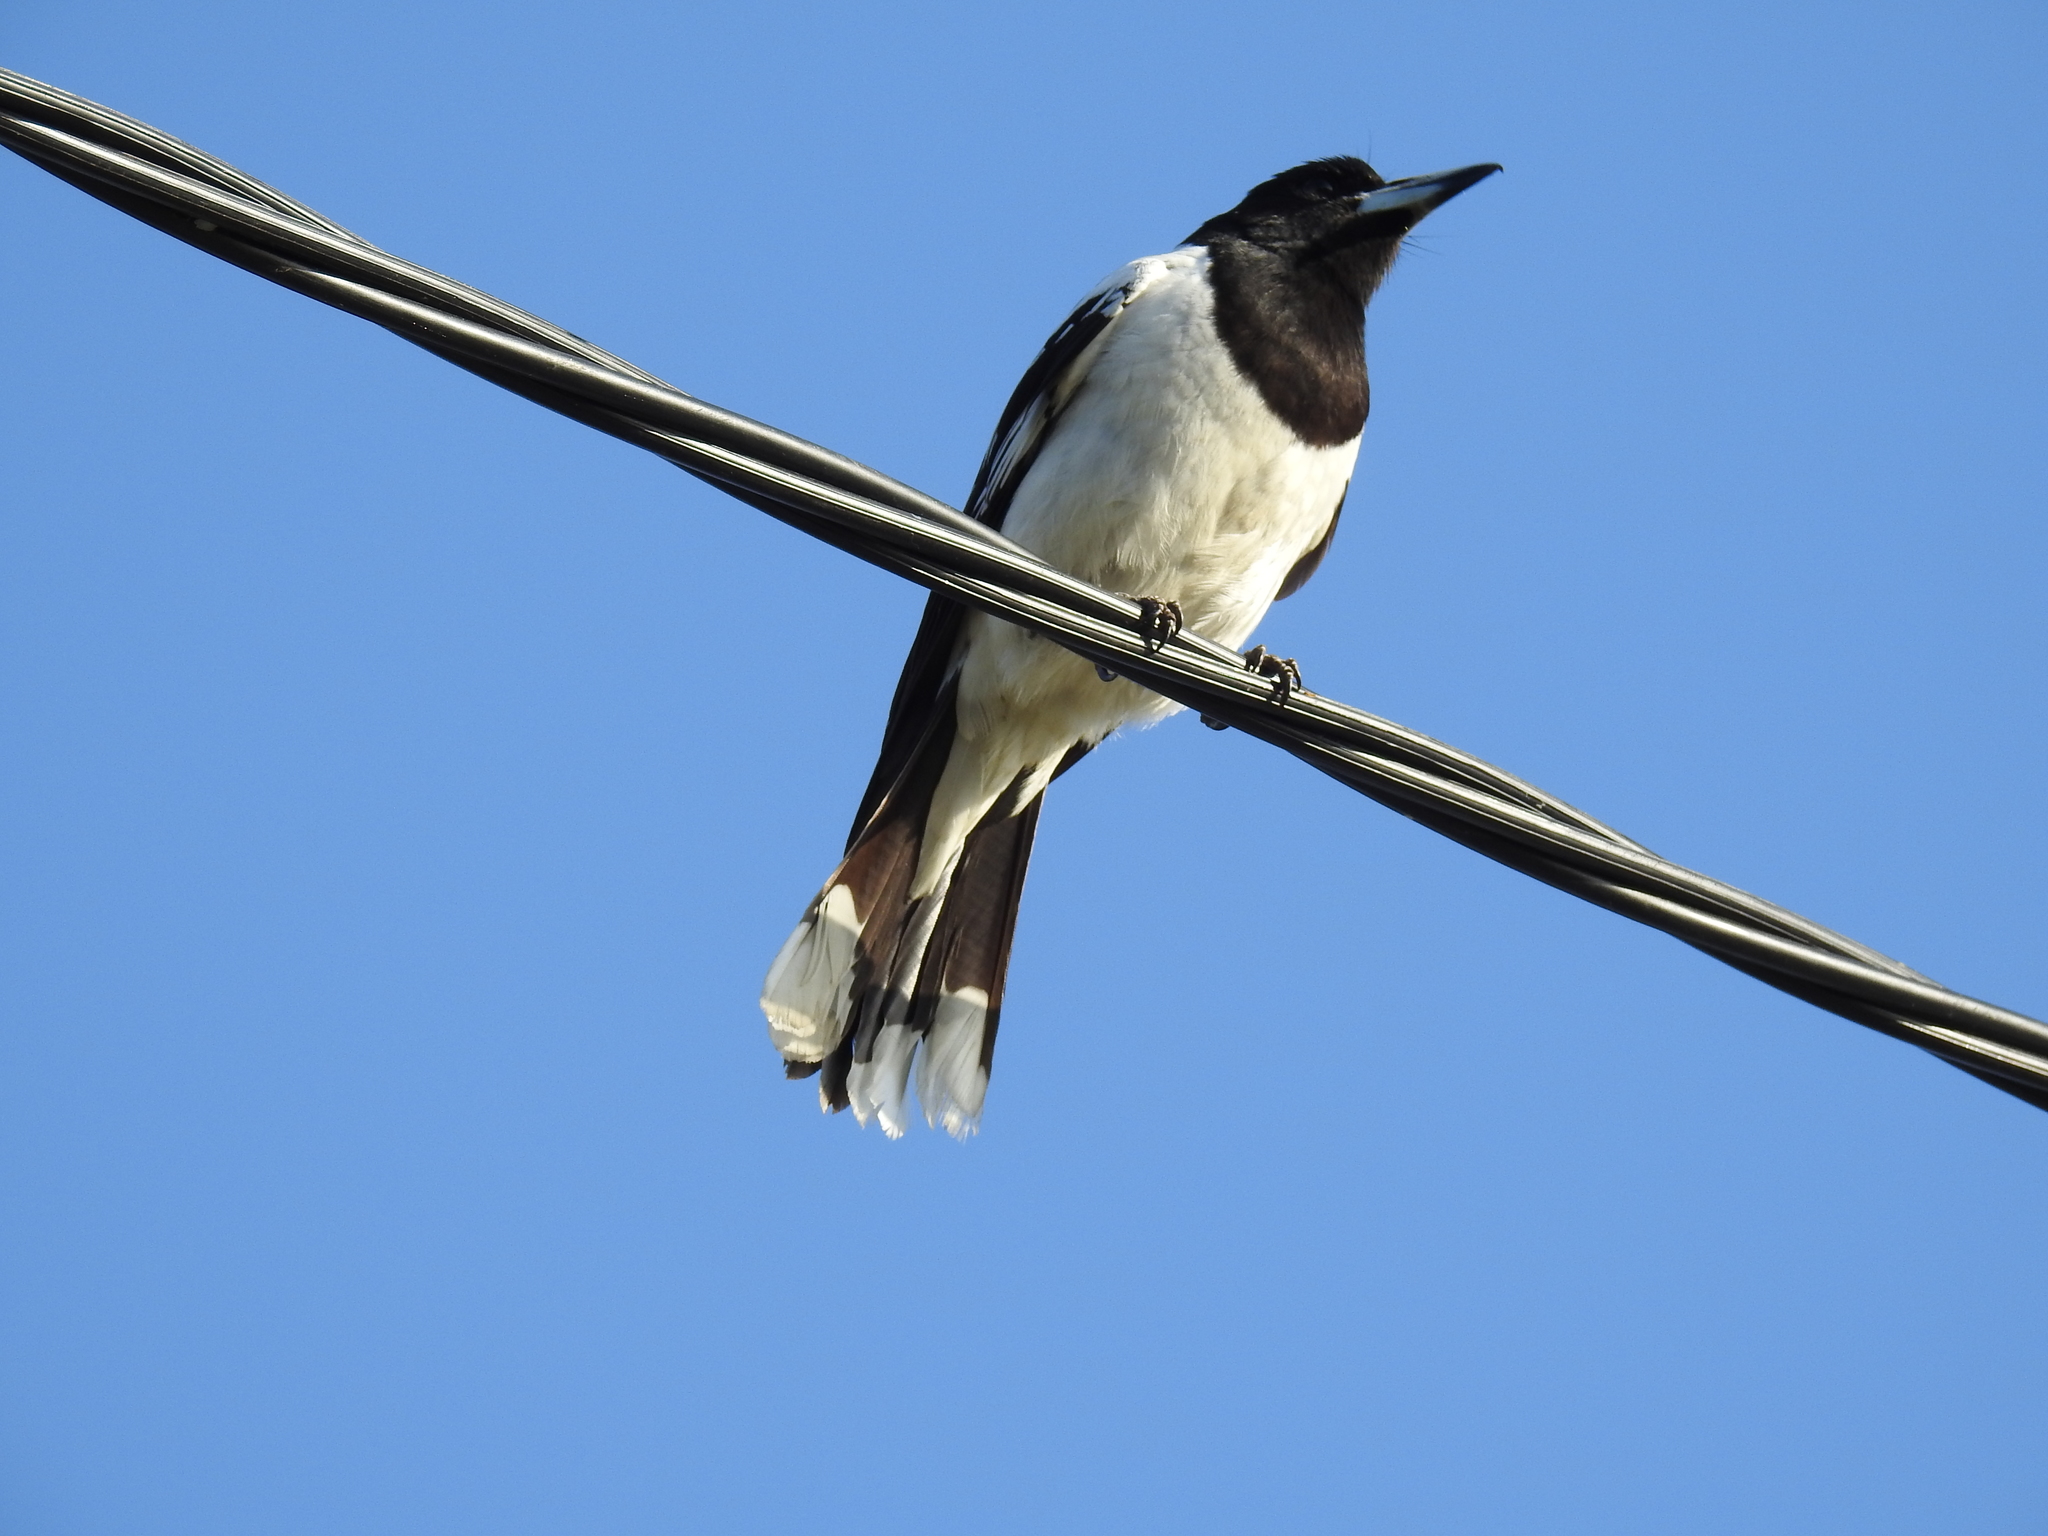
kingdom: Animalia
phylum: Chordata
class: Aves
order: Passeriformes
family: Cracticidae
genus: Cracticus
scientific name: Cracticus nigrogularis
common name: Pied butcherbird
